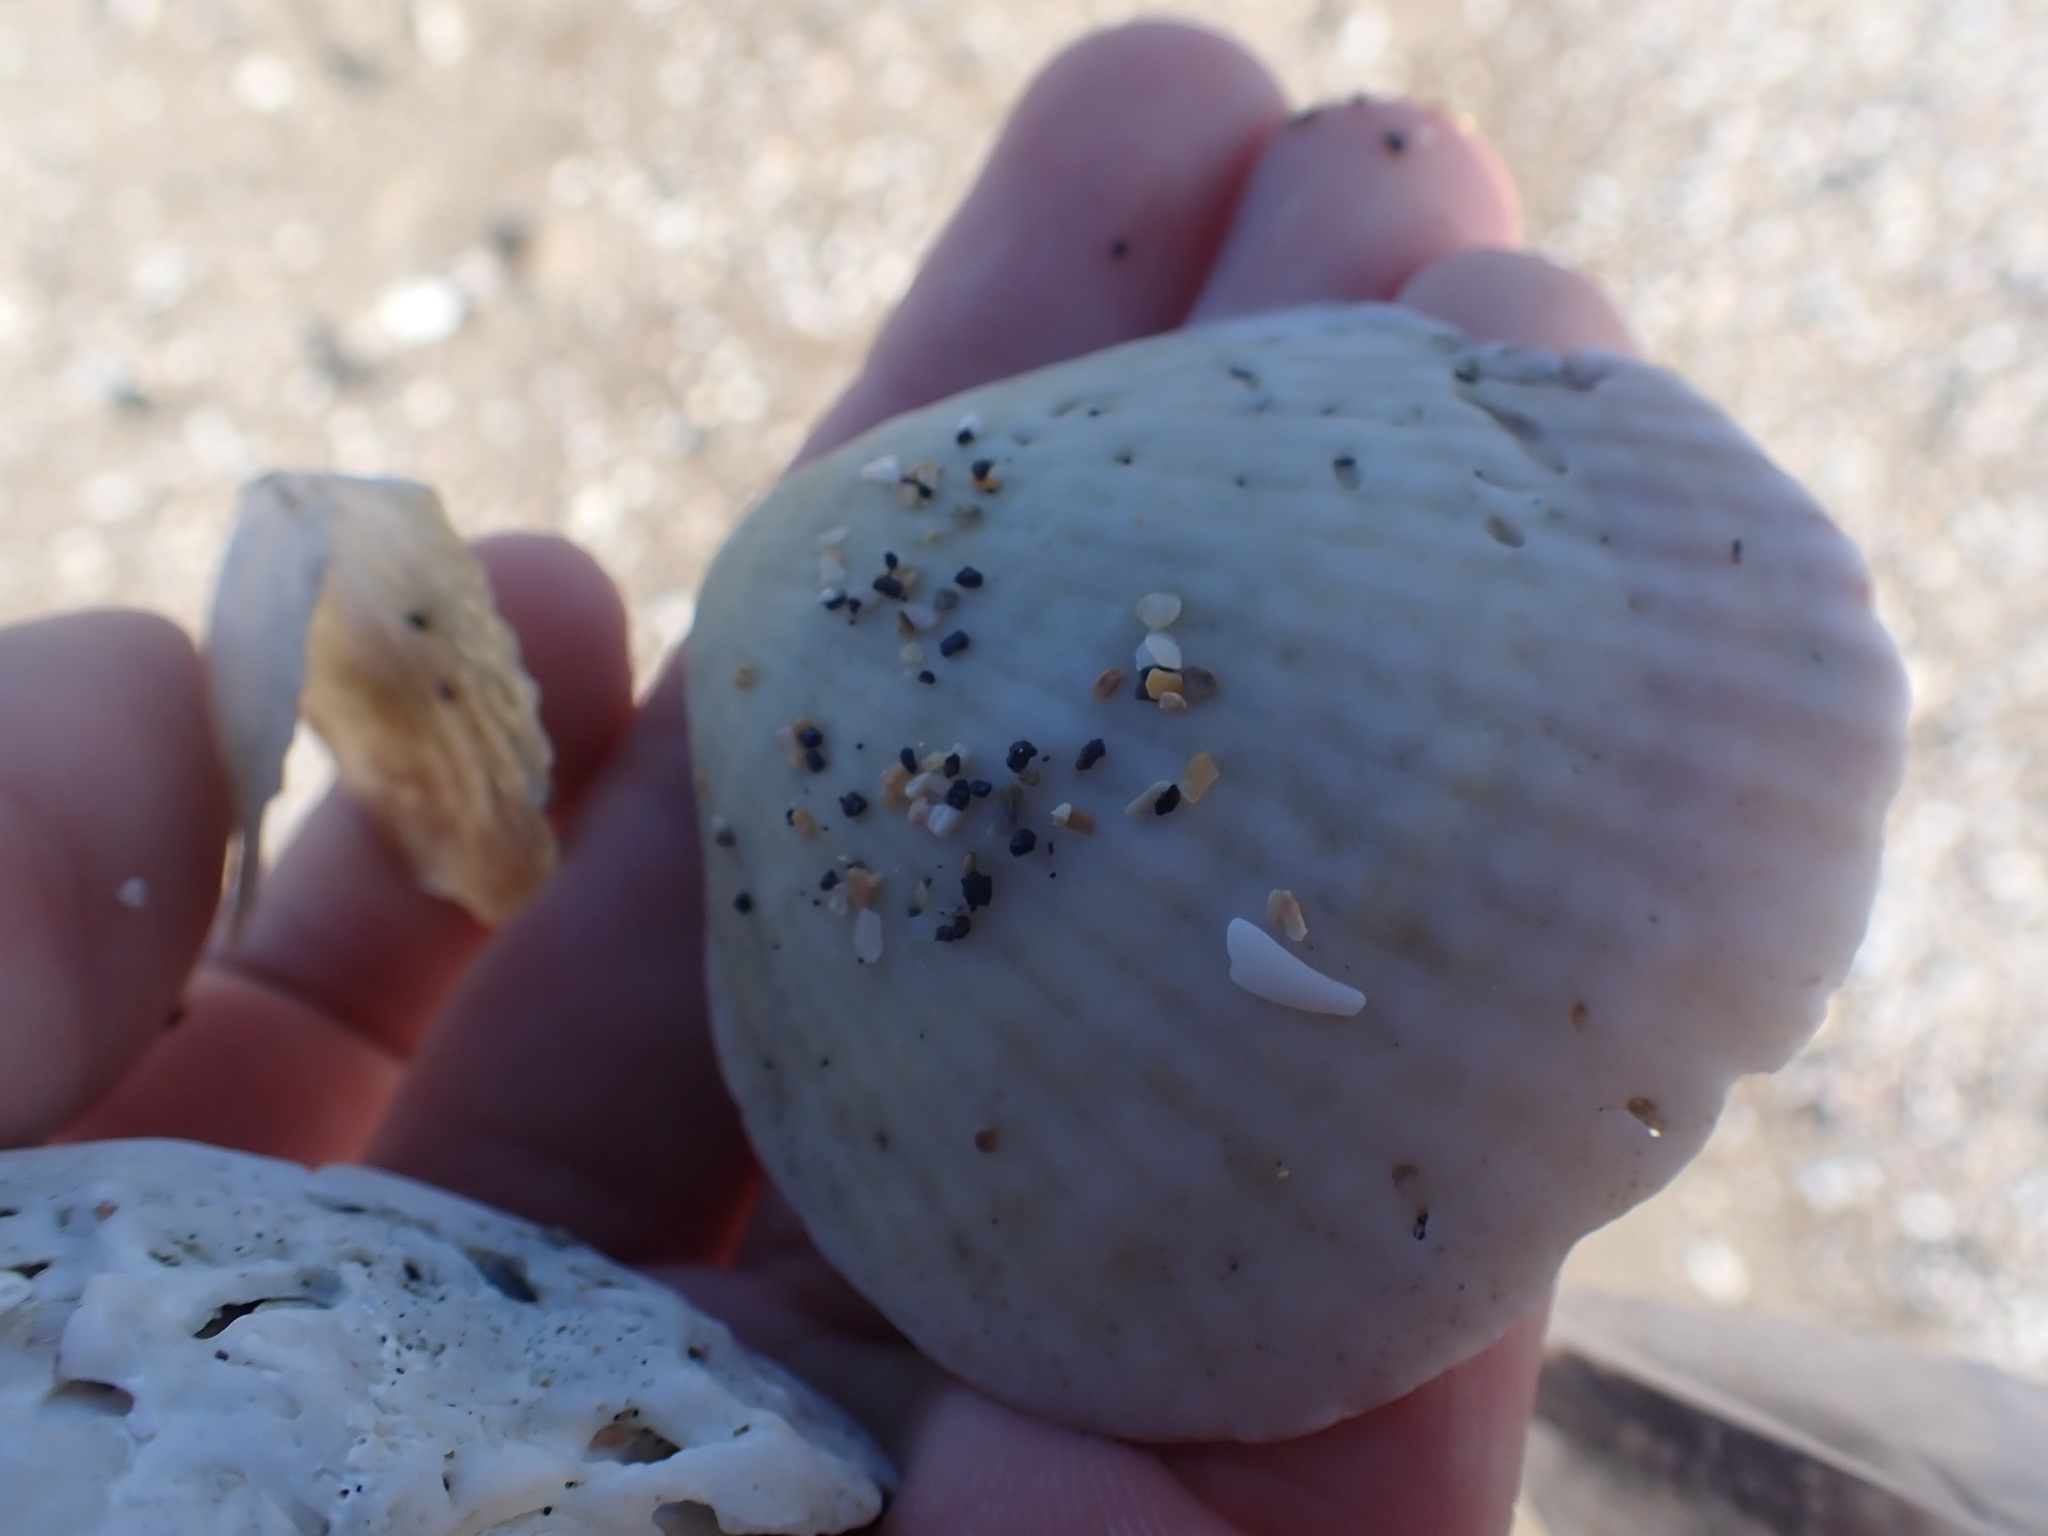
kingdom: Animalia
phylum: Mollusca
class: Bivalvia
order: Arcida
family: Glycymerididae
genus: Tucetona
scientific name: Tucetona laticostata
